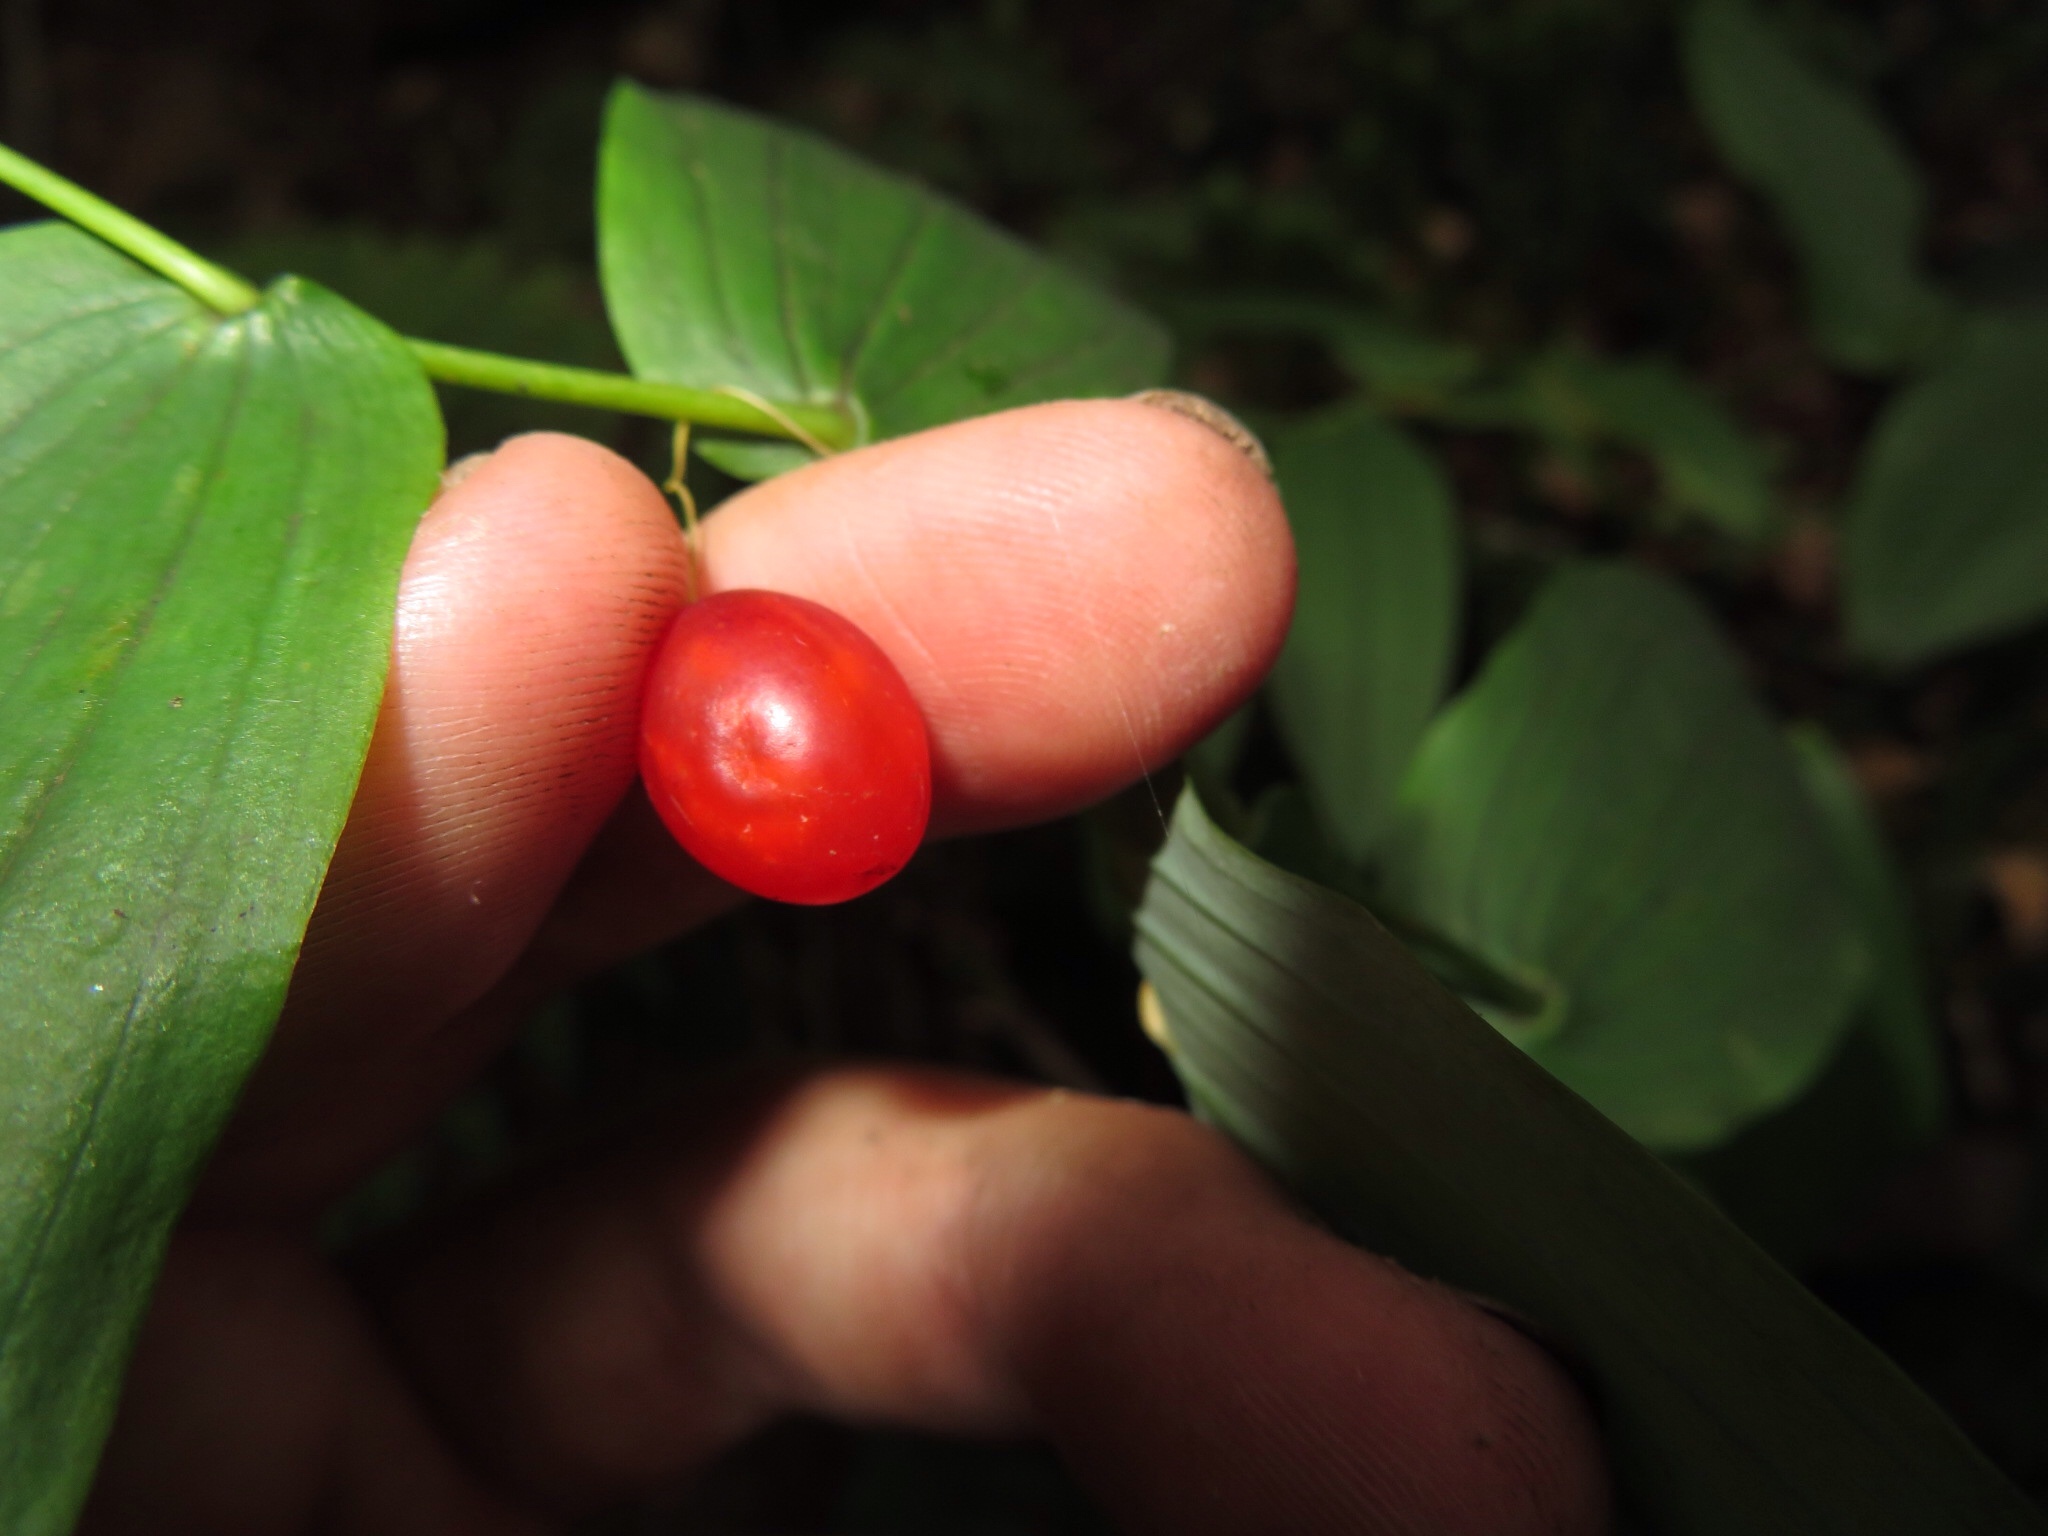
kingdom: Plantae
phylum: Tracheophyta
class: Liliopsida
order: Liliales
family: Liliaceae
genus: Streptopus
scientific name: Streptopus amplexifolius
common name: Clasp twisted stalk
